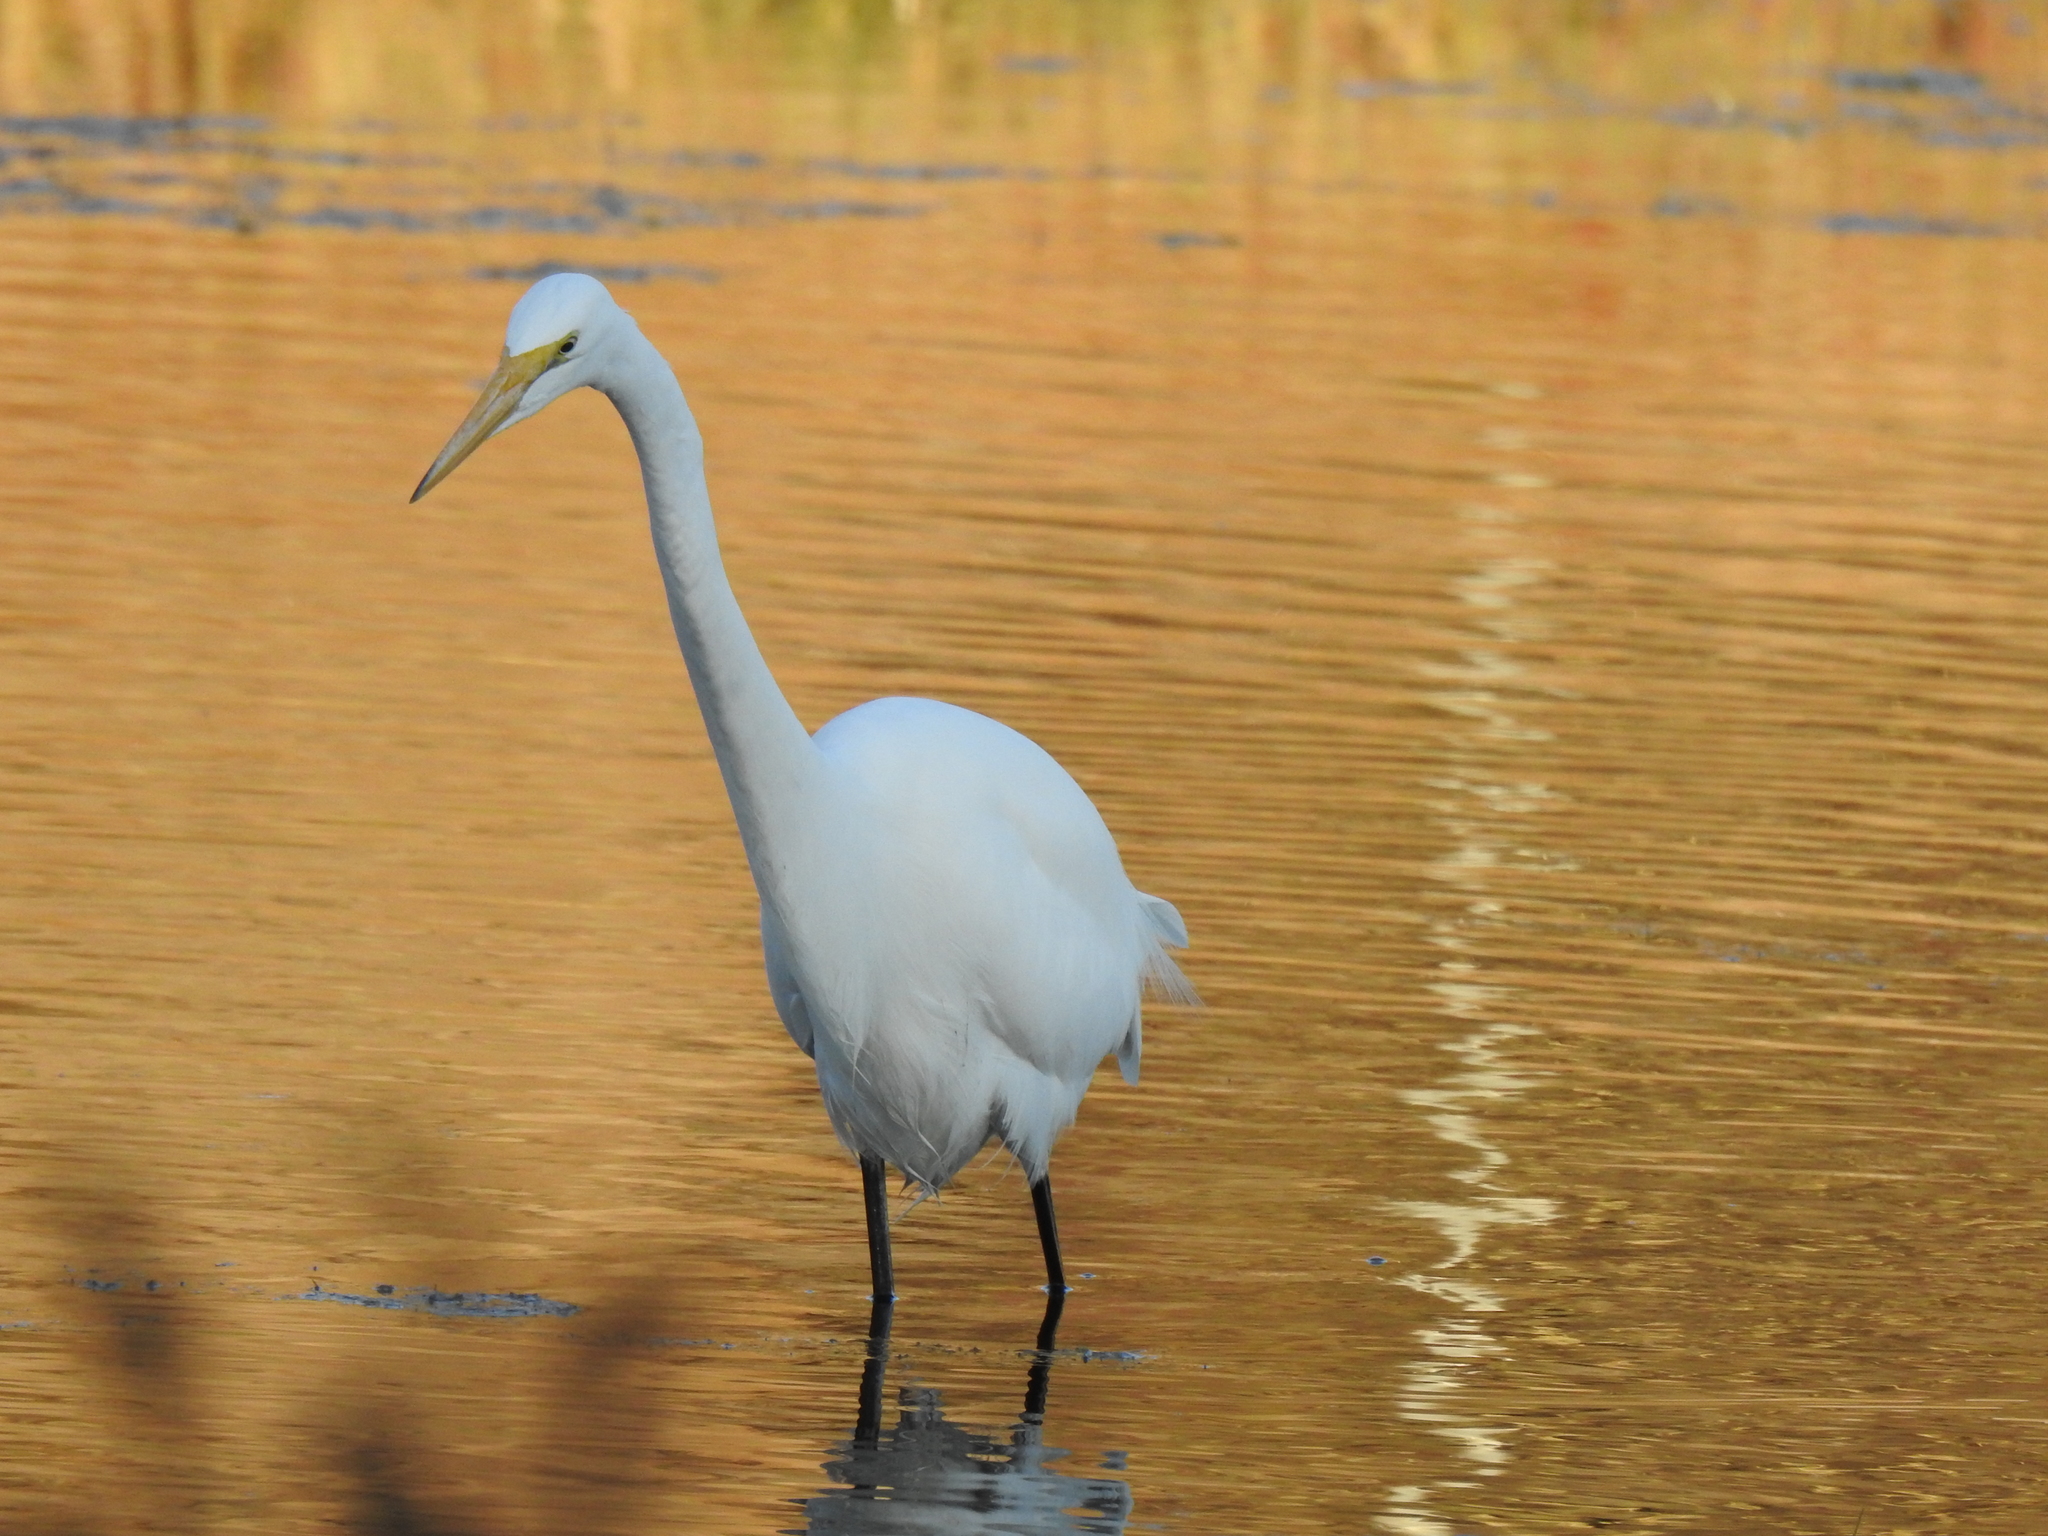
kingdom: Animalia
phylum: Chordata
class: Aves
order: Pelecaniformes
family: Ardeidae
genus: Ardea
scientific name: Ardea alba
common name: Great egret
